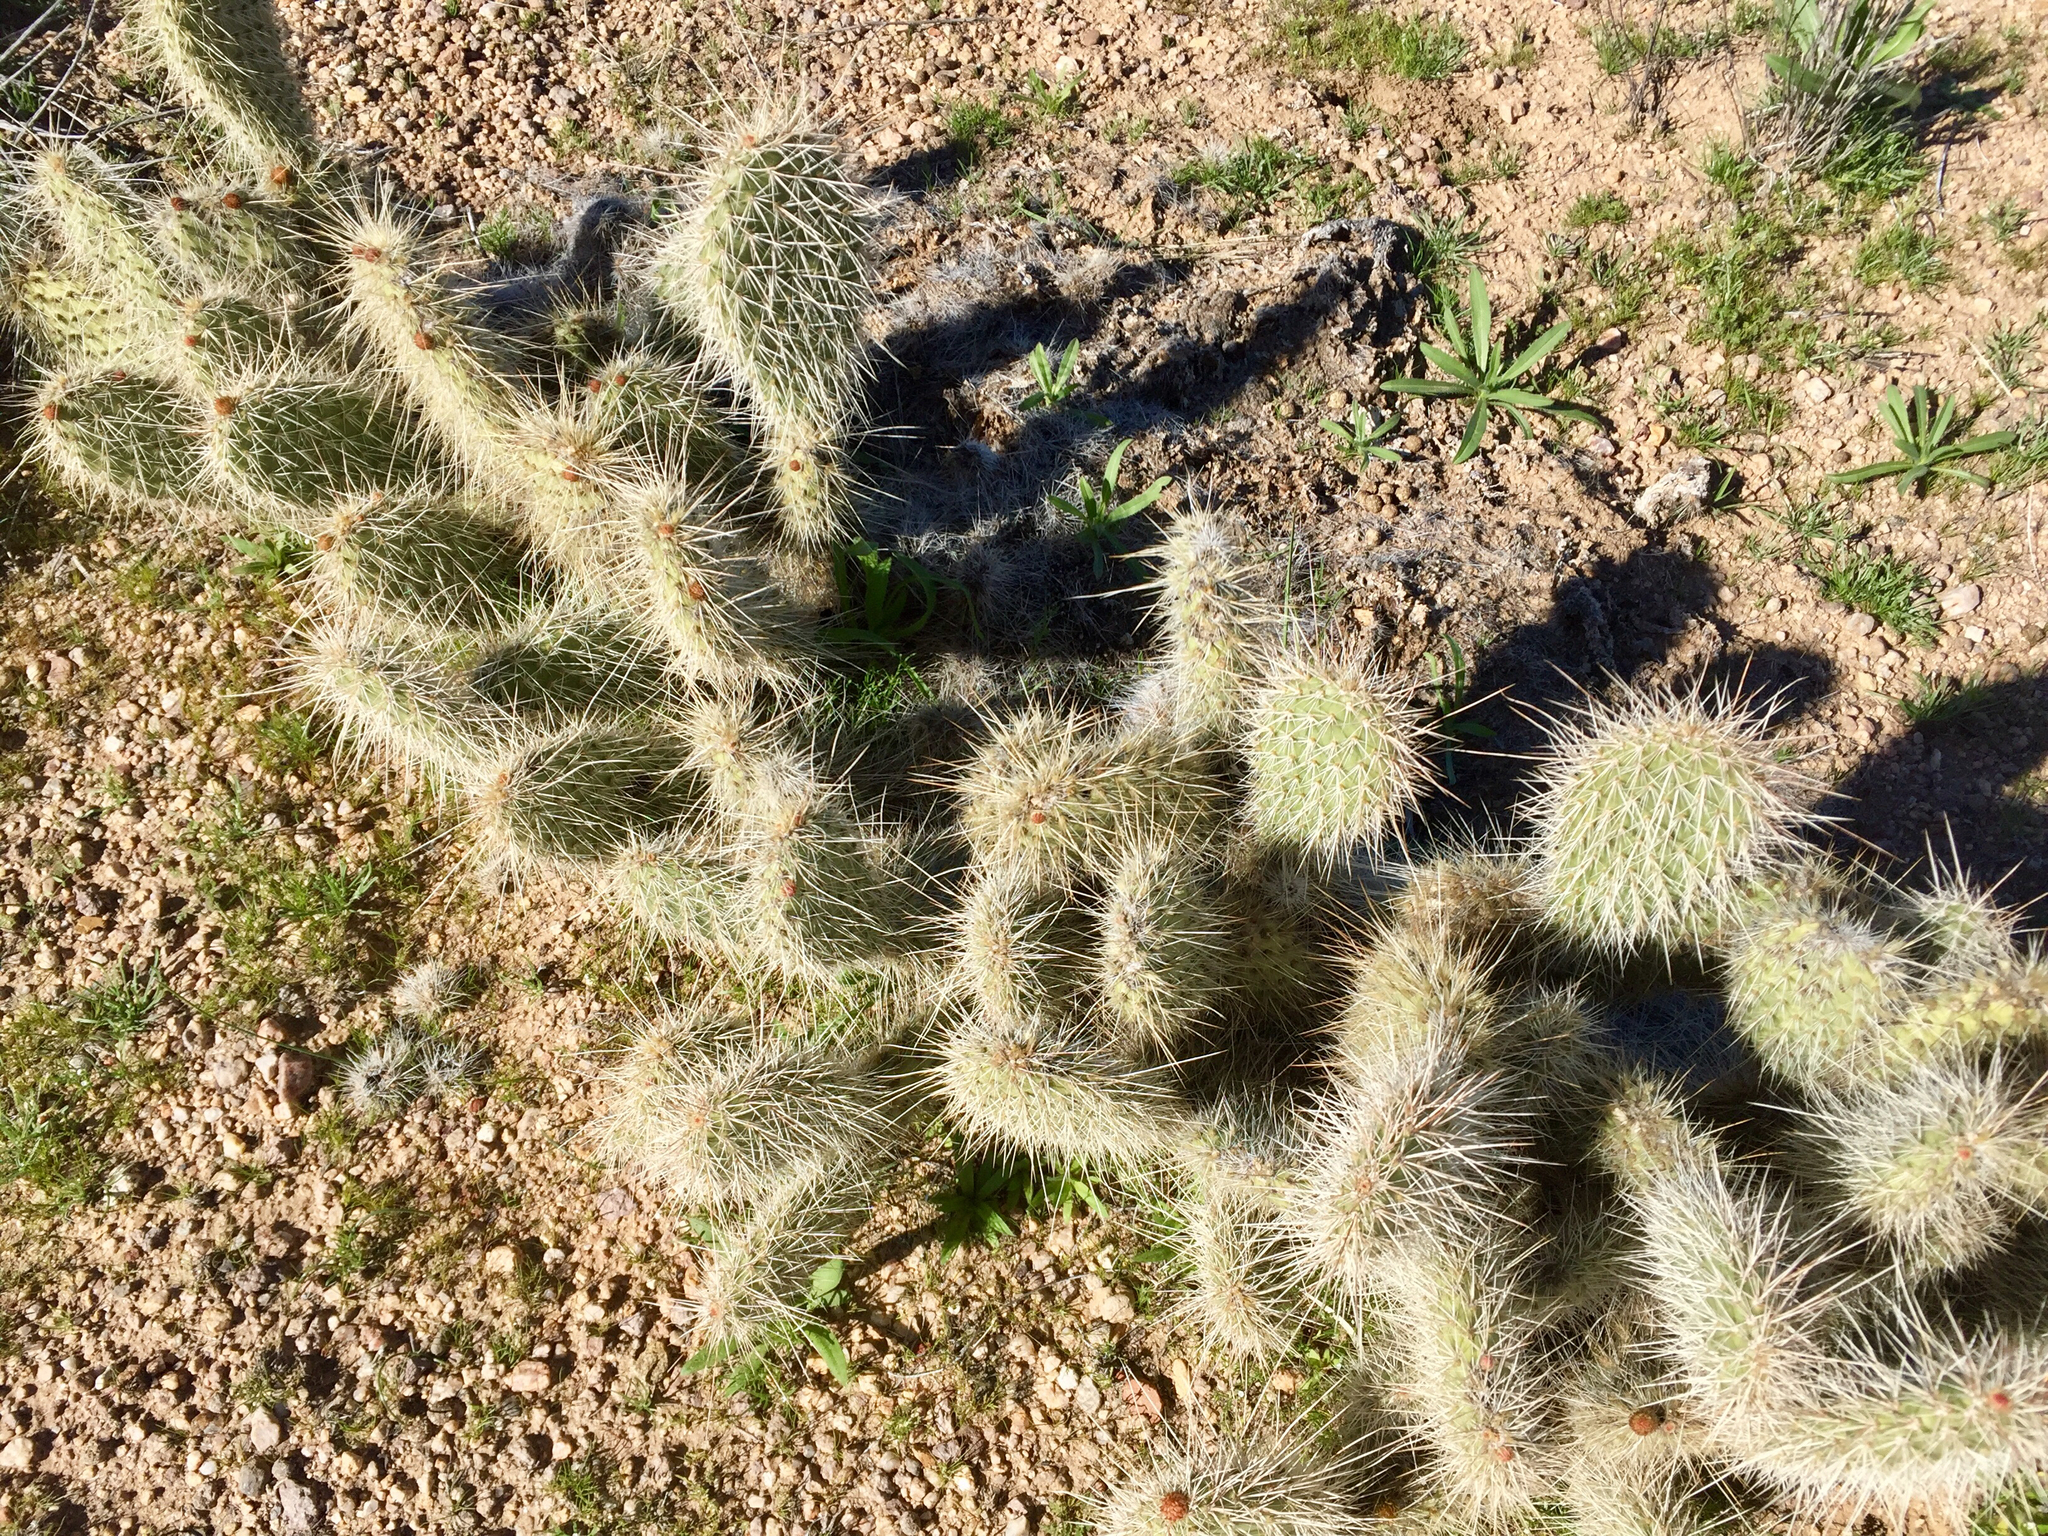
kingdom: Plantae
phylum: Tracheophyta
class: Magnoliopsida
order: Caryophyllales
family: Cactaceae
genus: Opuntia
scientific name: Opuntia polyacantha
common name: Plains prickly-pear
